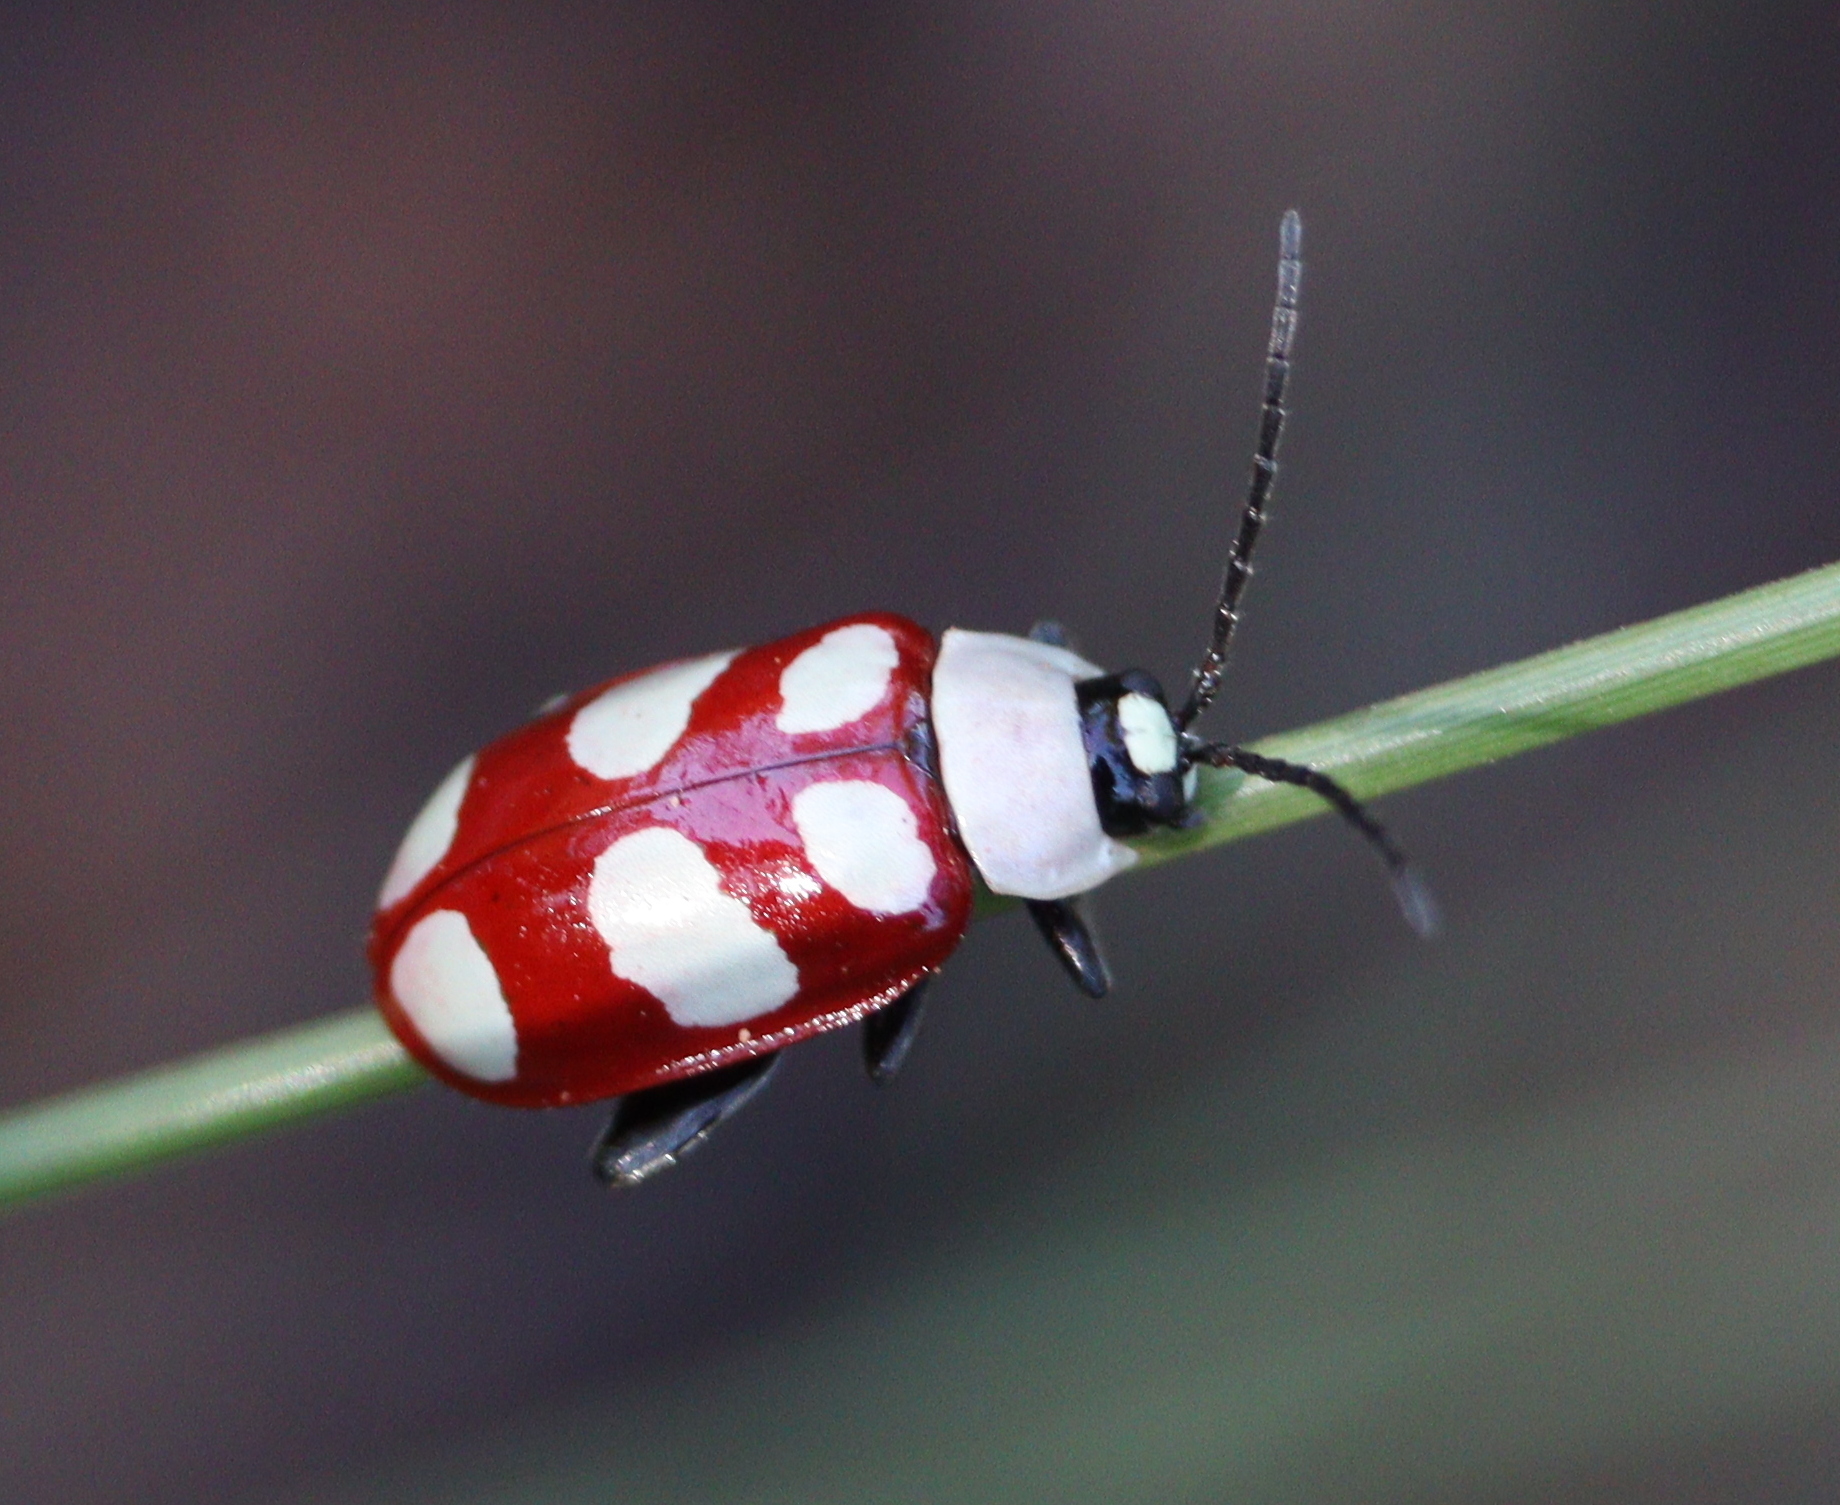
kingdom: Animalia
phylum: Arthropoda
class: Insecta
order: Coleoptera
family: Chrysomelidae
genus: Omophoita
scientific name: Omophoita
